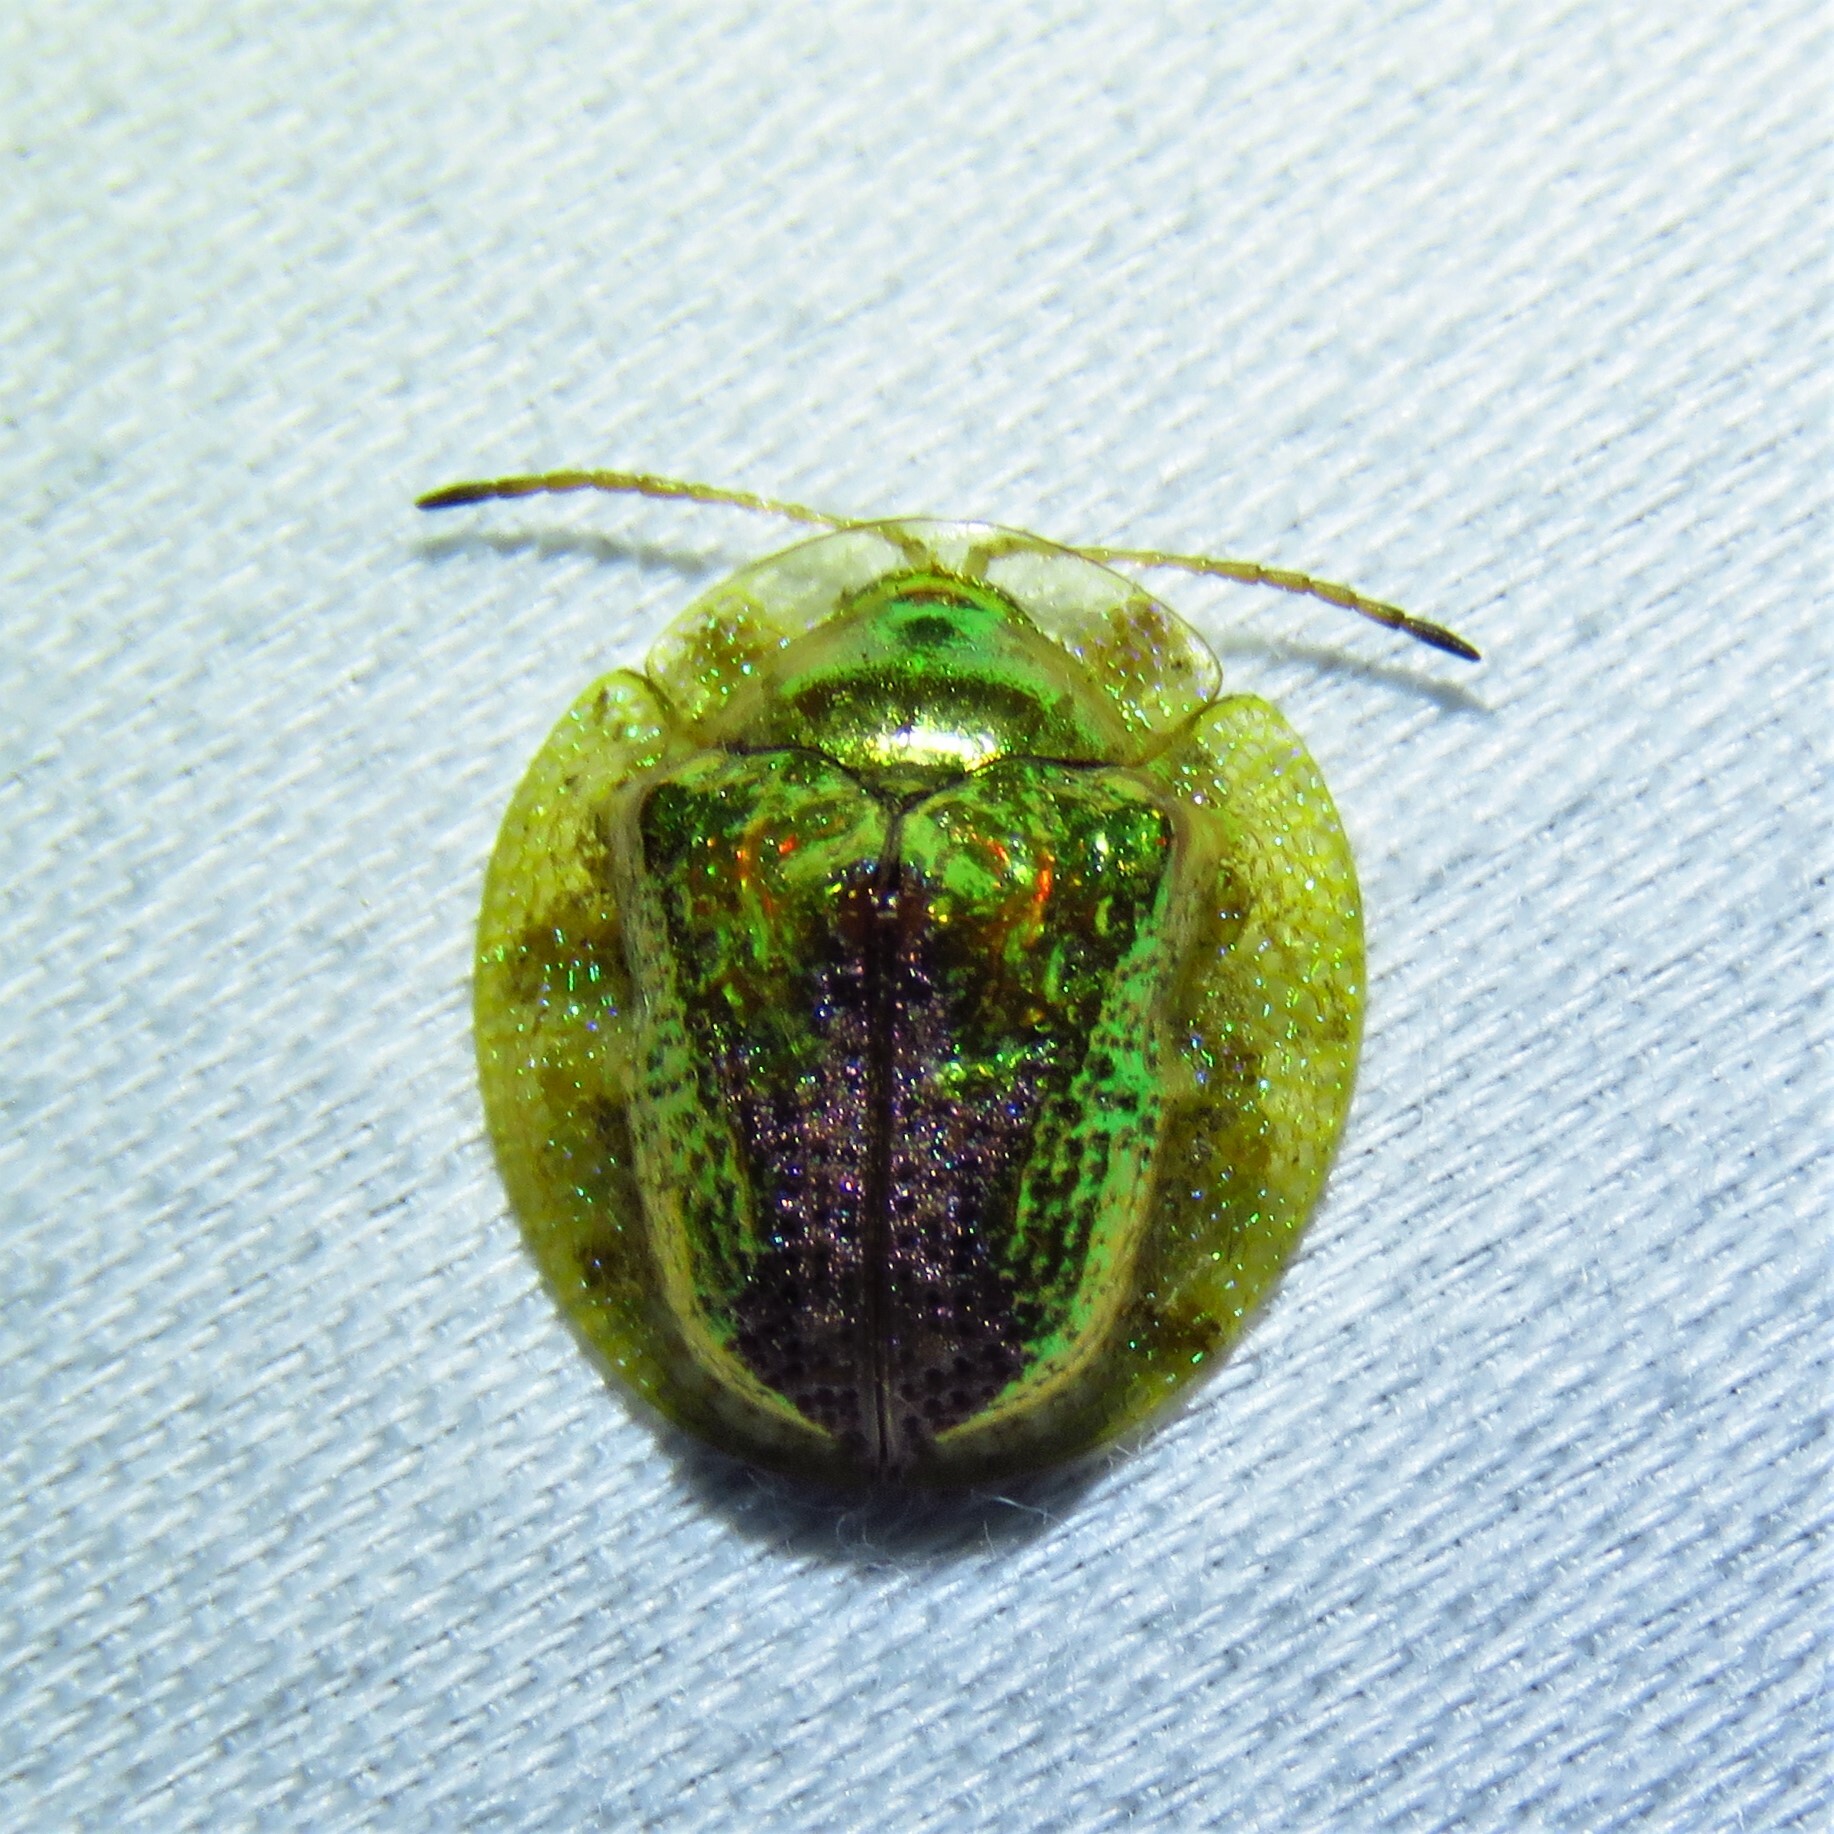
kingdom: Animalia
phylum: Arthropoda
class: Insecta
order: Coleoptera
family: Chrysomelidae
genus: Coptocycla
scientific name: Coptocycla texana
